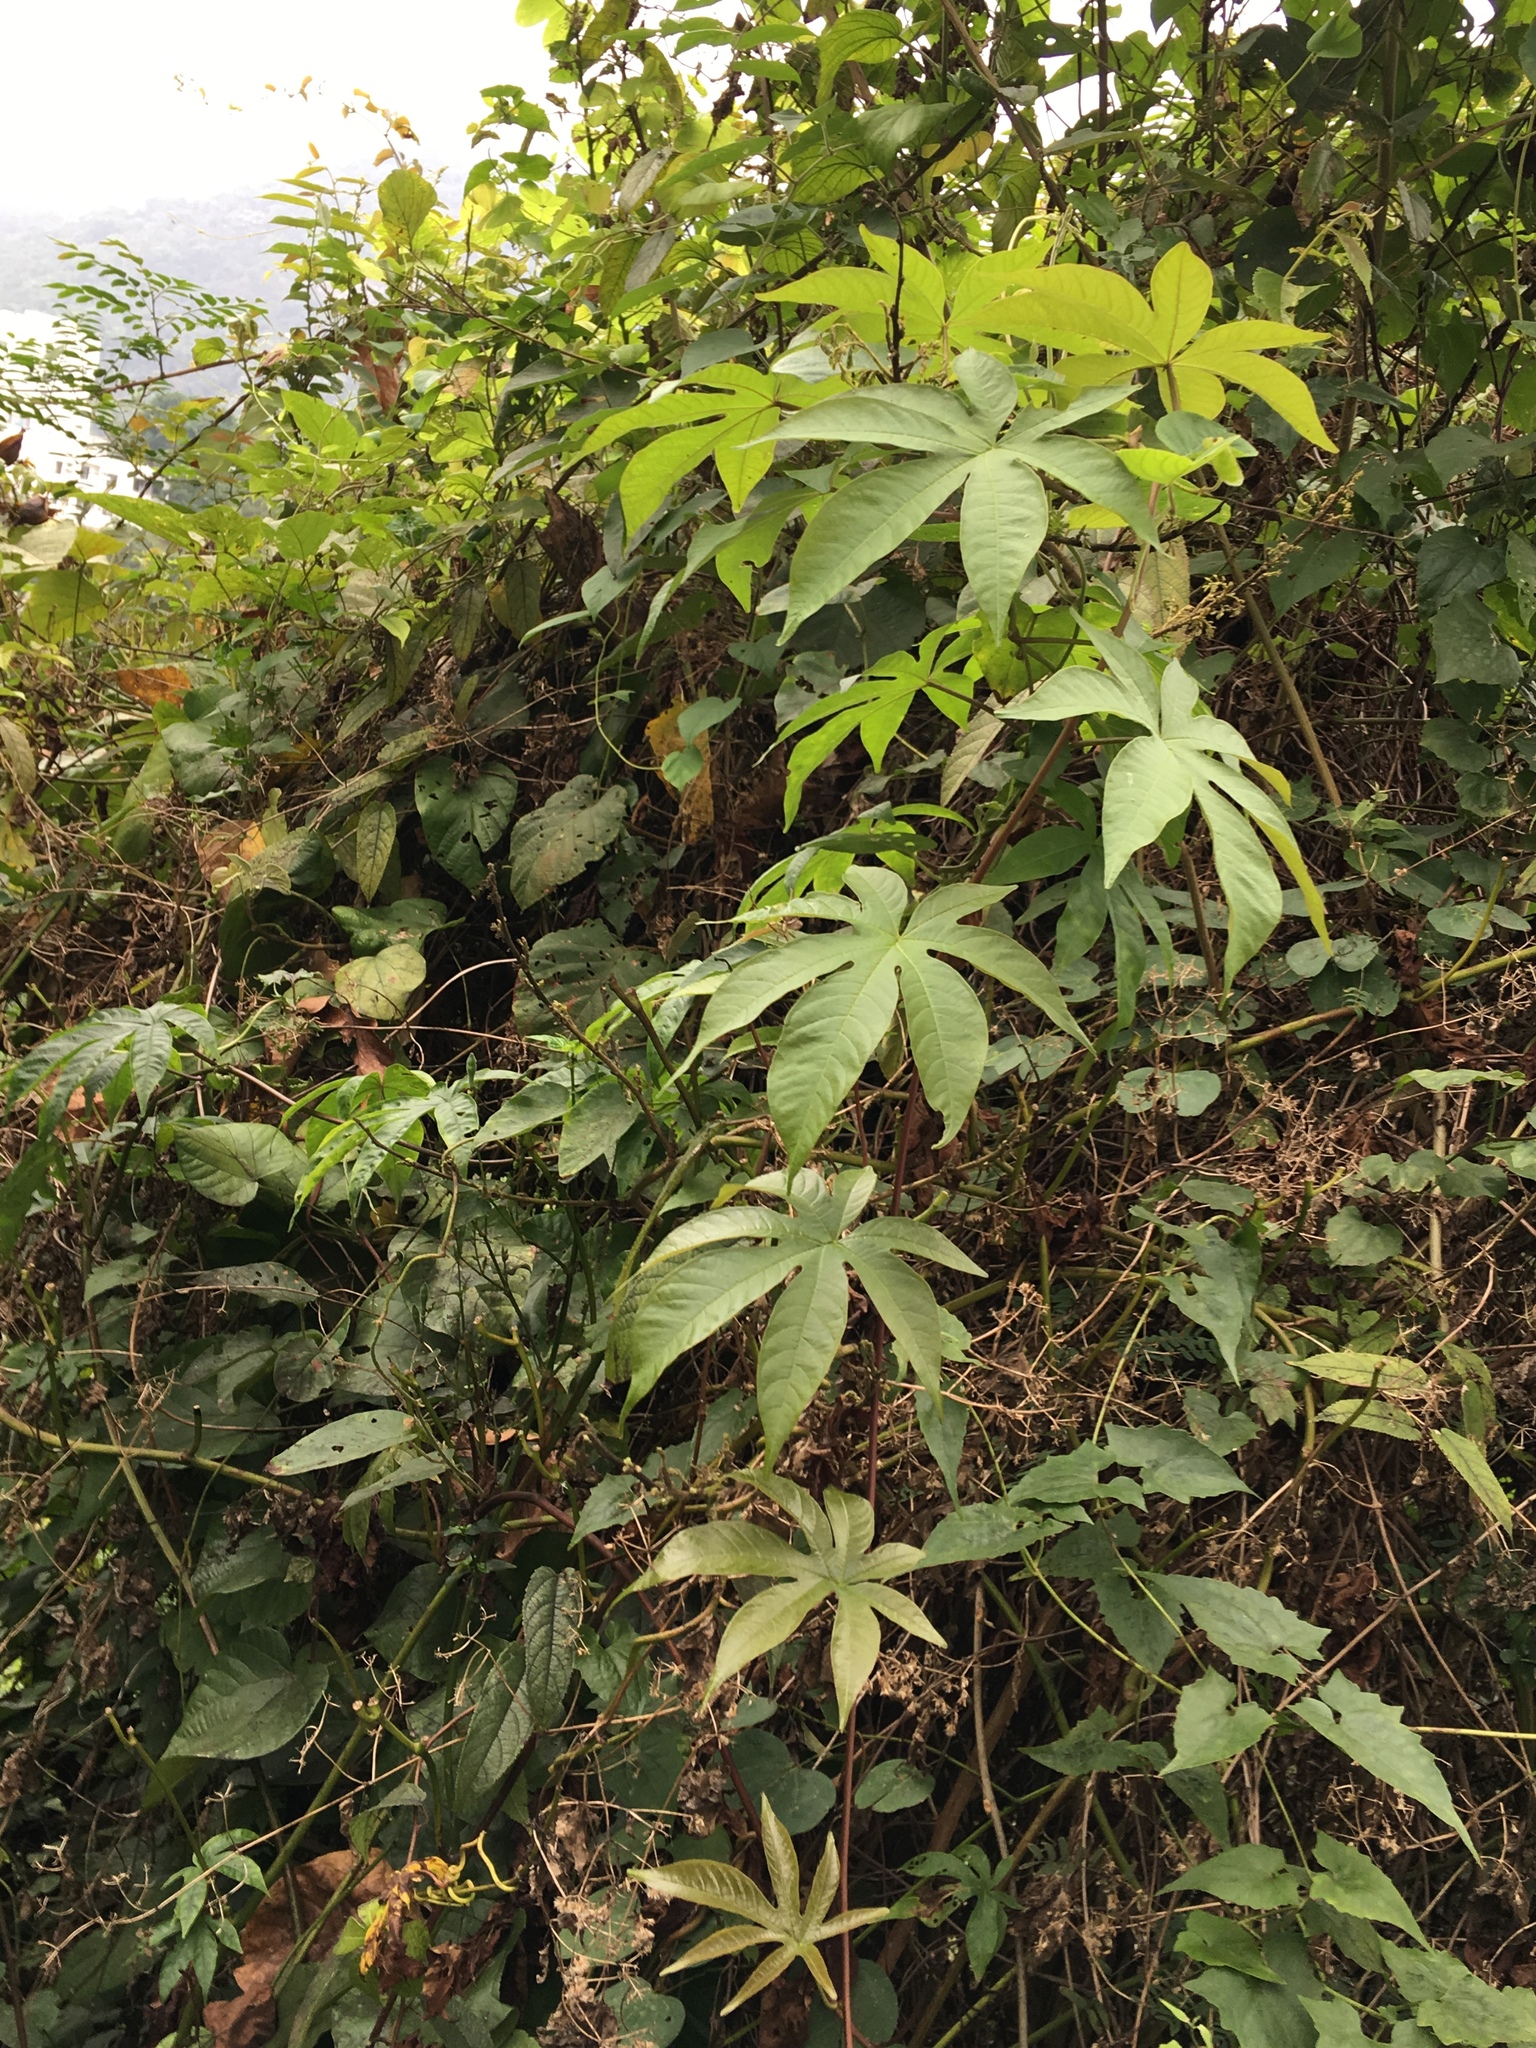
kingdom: Plantae
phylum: Tracheophyta
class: Magnoliopsida
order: Solanales
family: Convolvulaceae
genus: Distimake
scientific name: Distimake tuberosus
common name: Spanish arborvine
